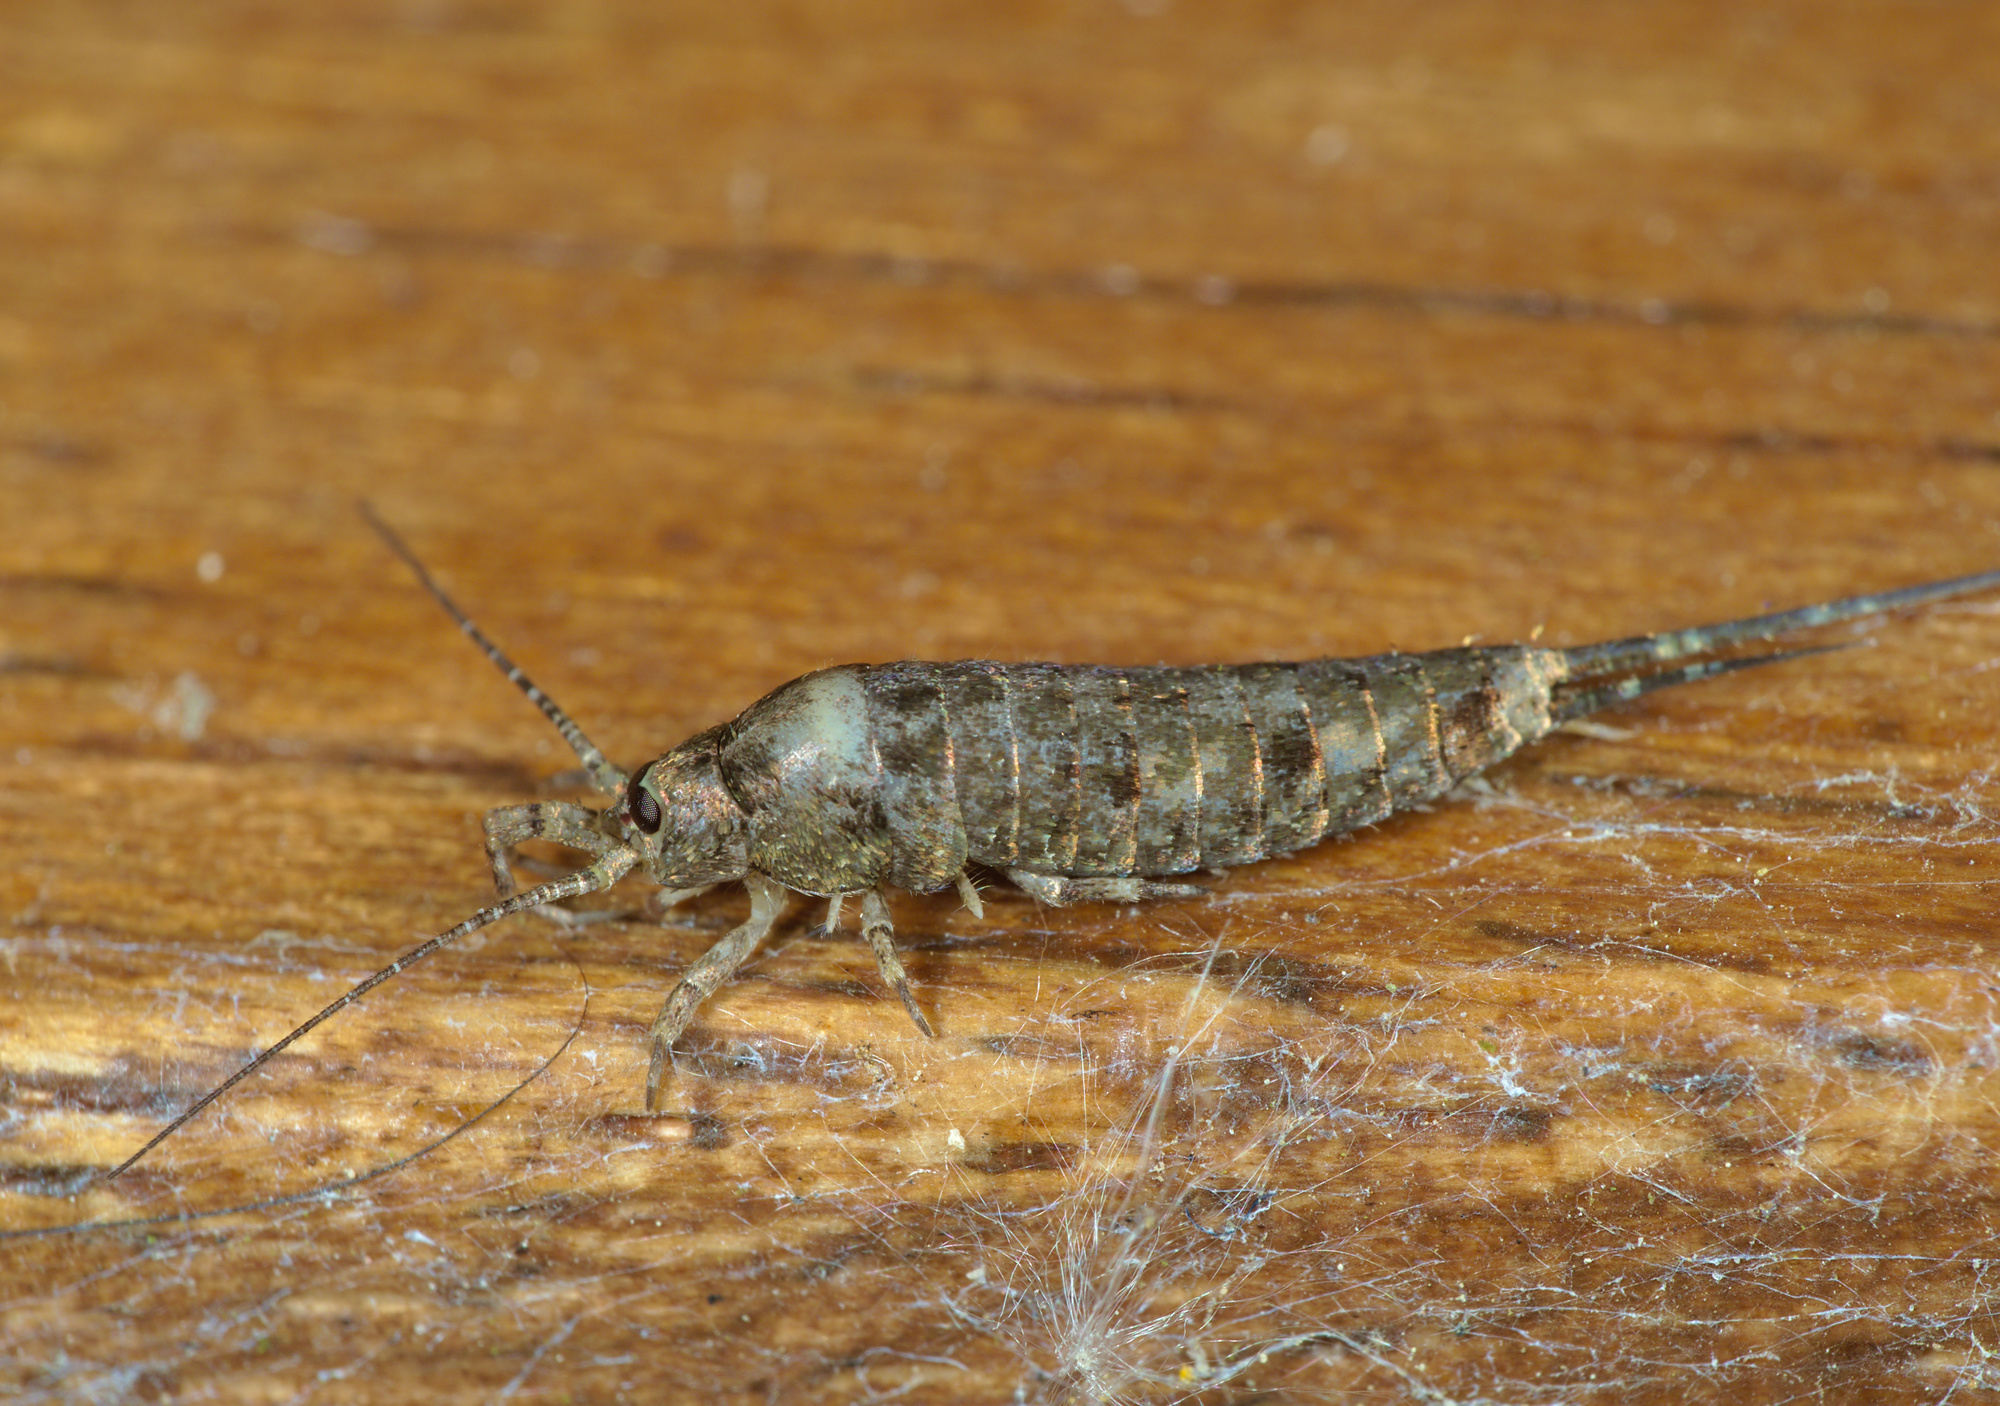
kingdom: Animalia
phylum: Arthropoda
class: Insecta
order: Archaeognatha
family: Machilidae
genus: Trigoniophthalmus
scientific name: Trigoniophthalmus alternatus
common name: Jumping bristletail
